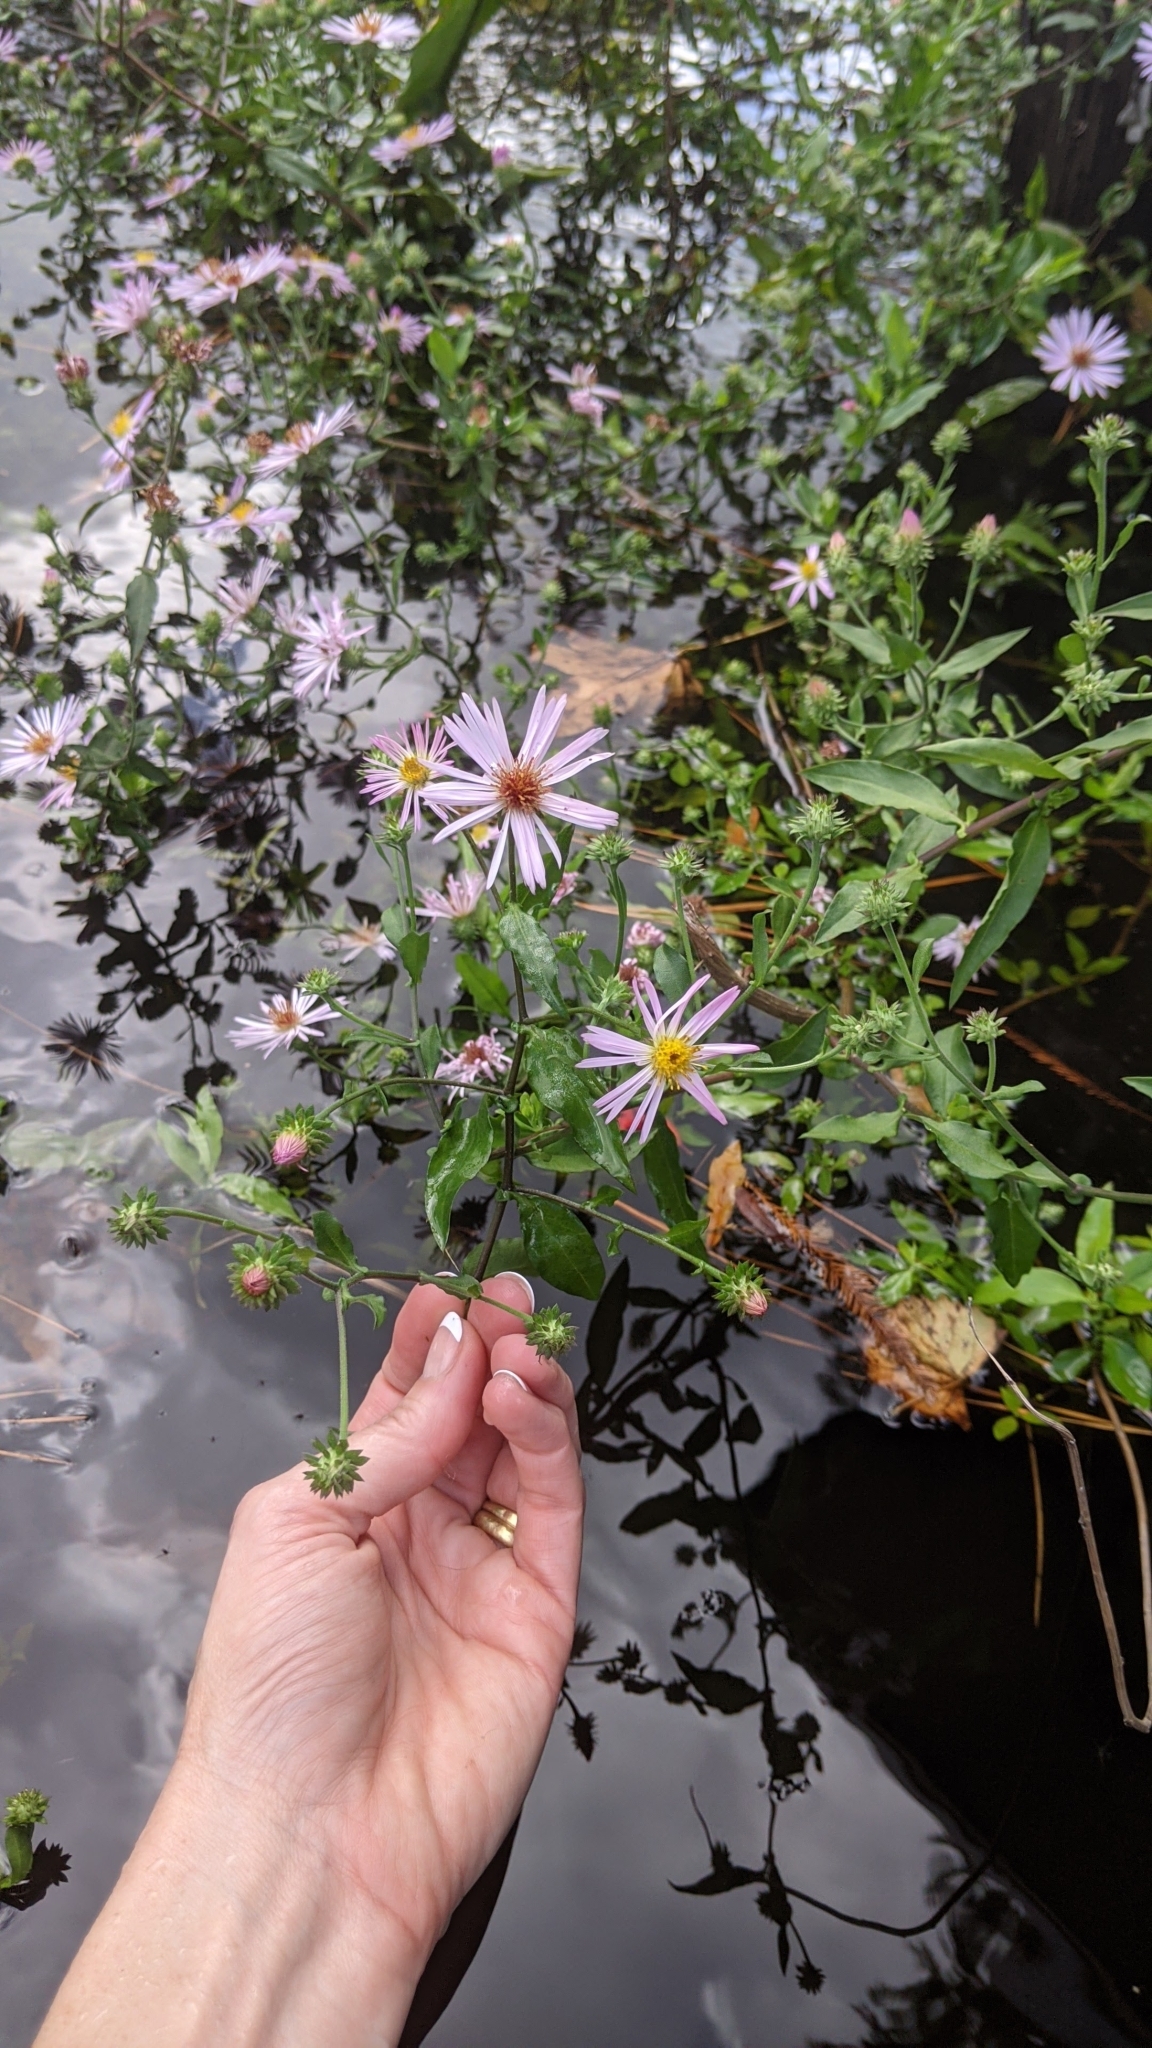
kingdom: Plantae
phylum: Tracheophyta
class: Magnoliopsida
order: Asterales
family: Asteraceae
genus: Ampelaster
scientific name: Ampelaster carolinianus
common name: Climbing aster
